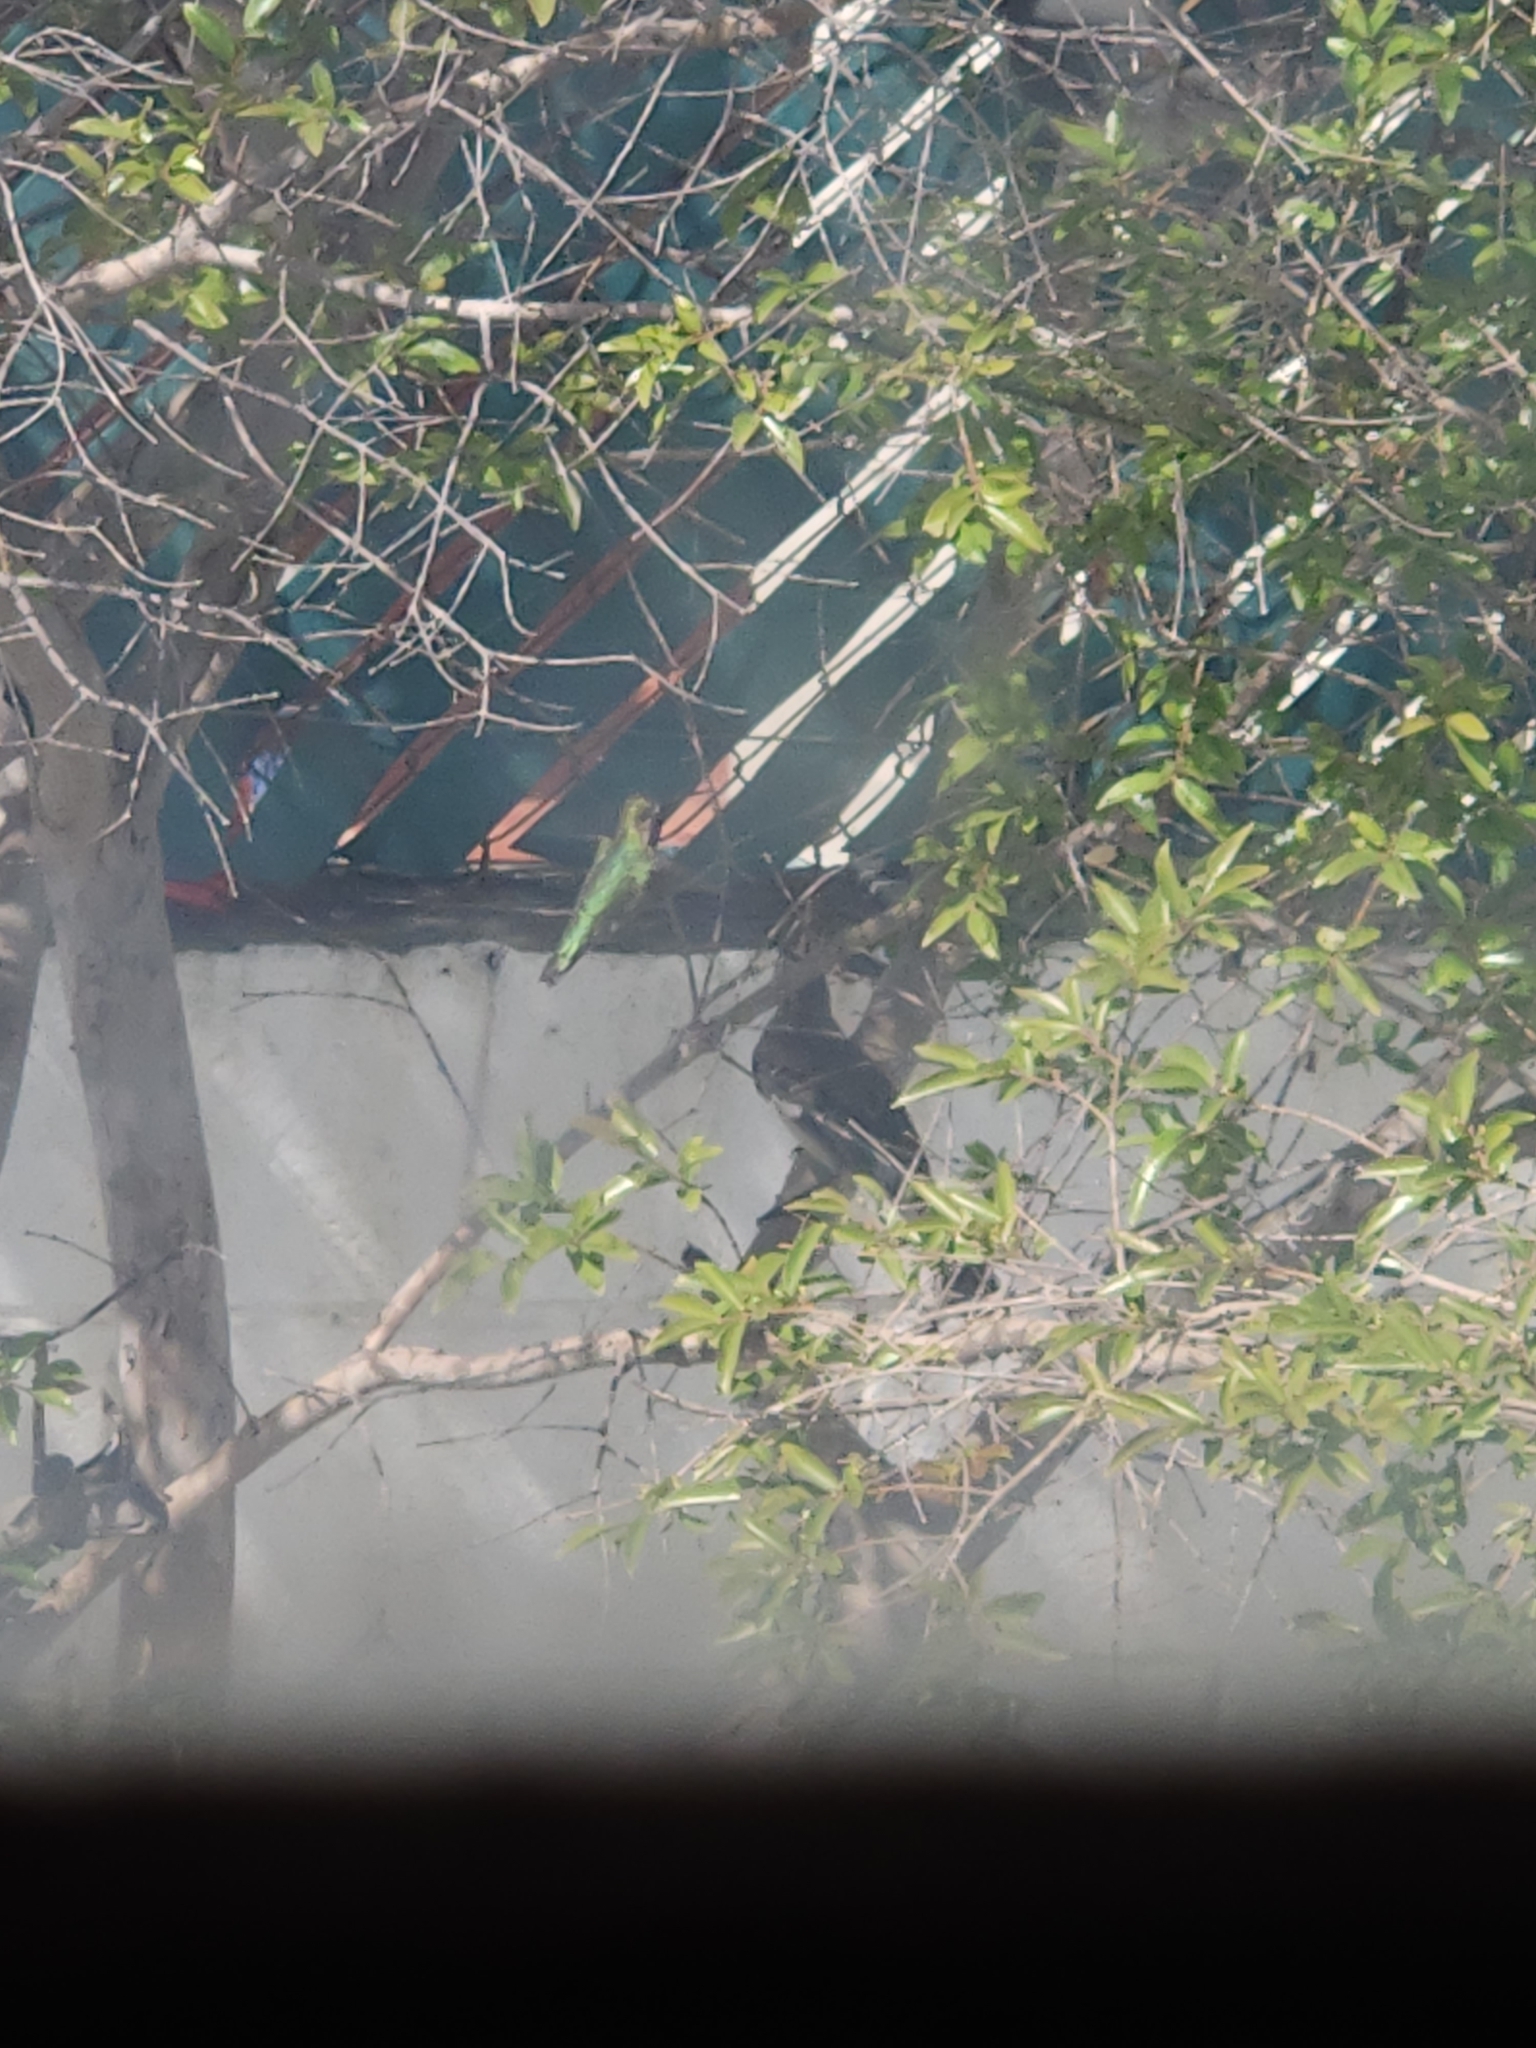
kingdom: Animalia
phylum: Chordata
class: Aves
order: Apodiformes
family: Trochilidae
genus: Calypte
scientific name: Calypte anna
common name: Anna's hummingbird
